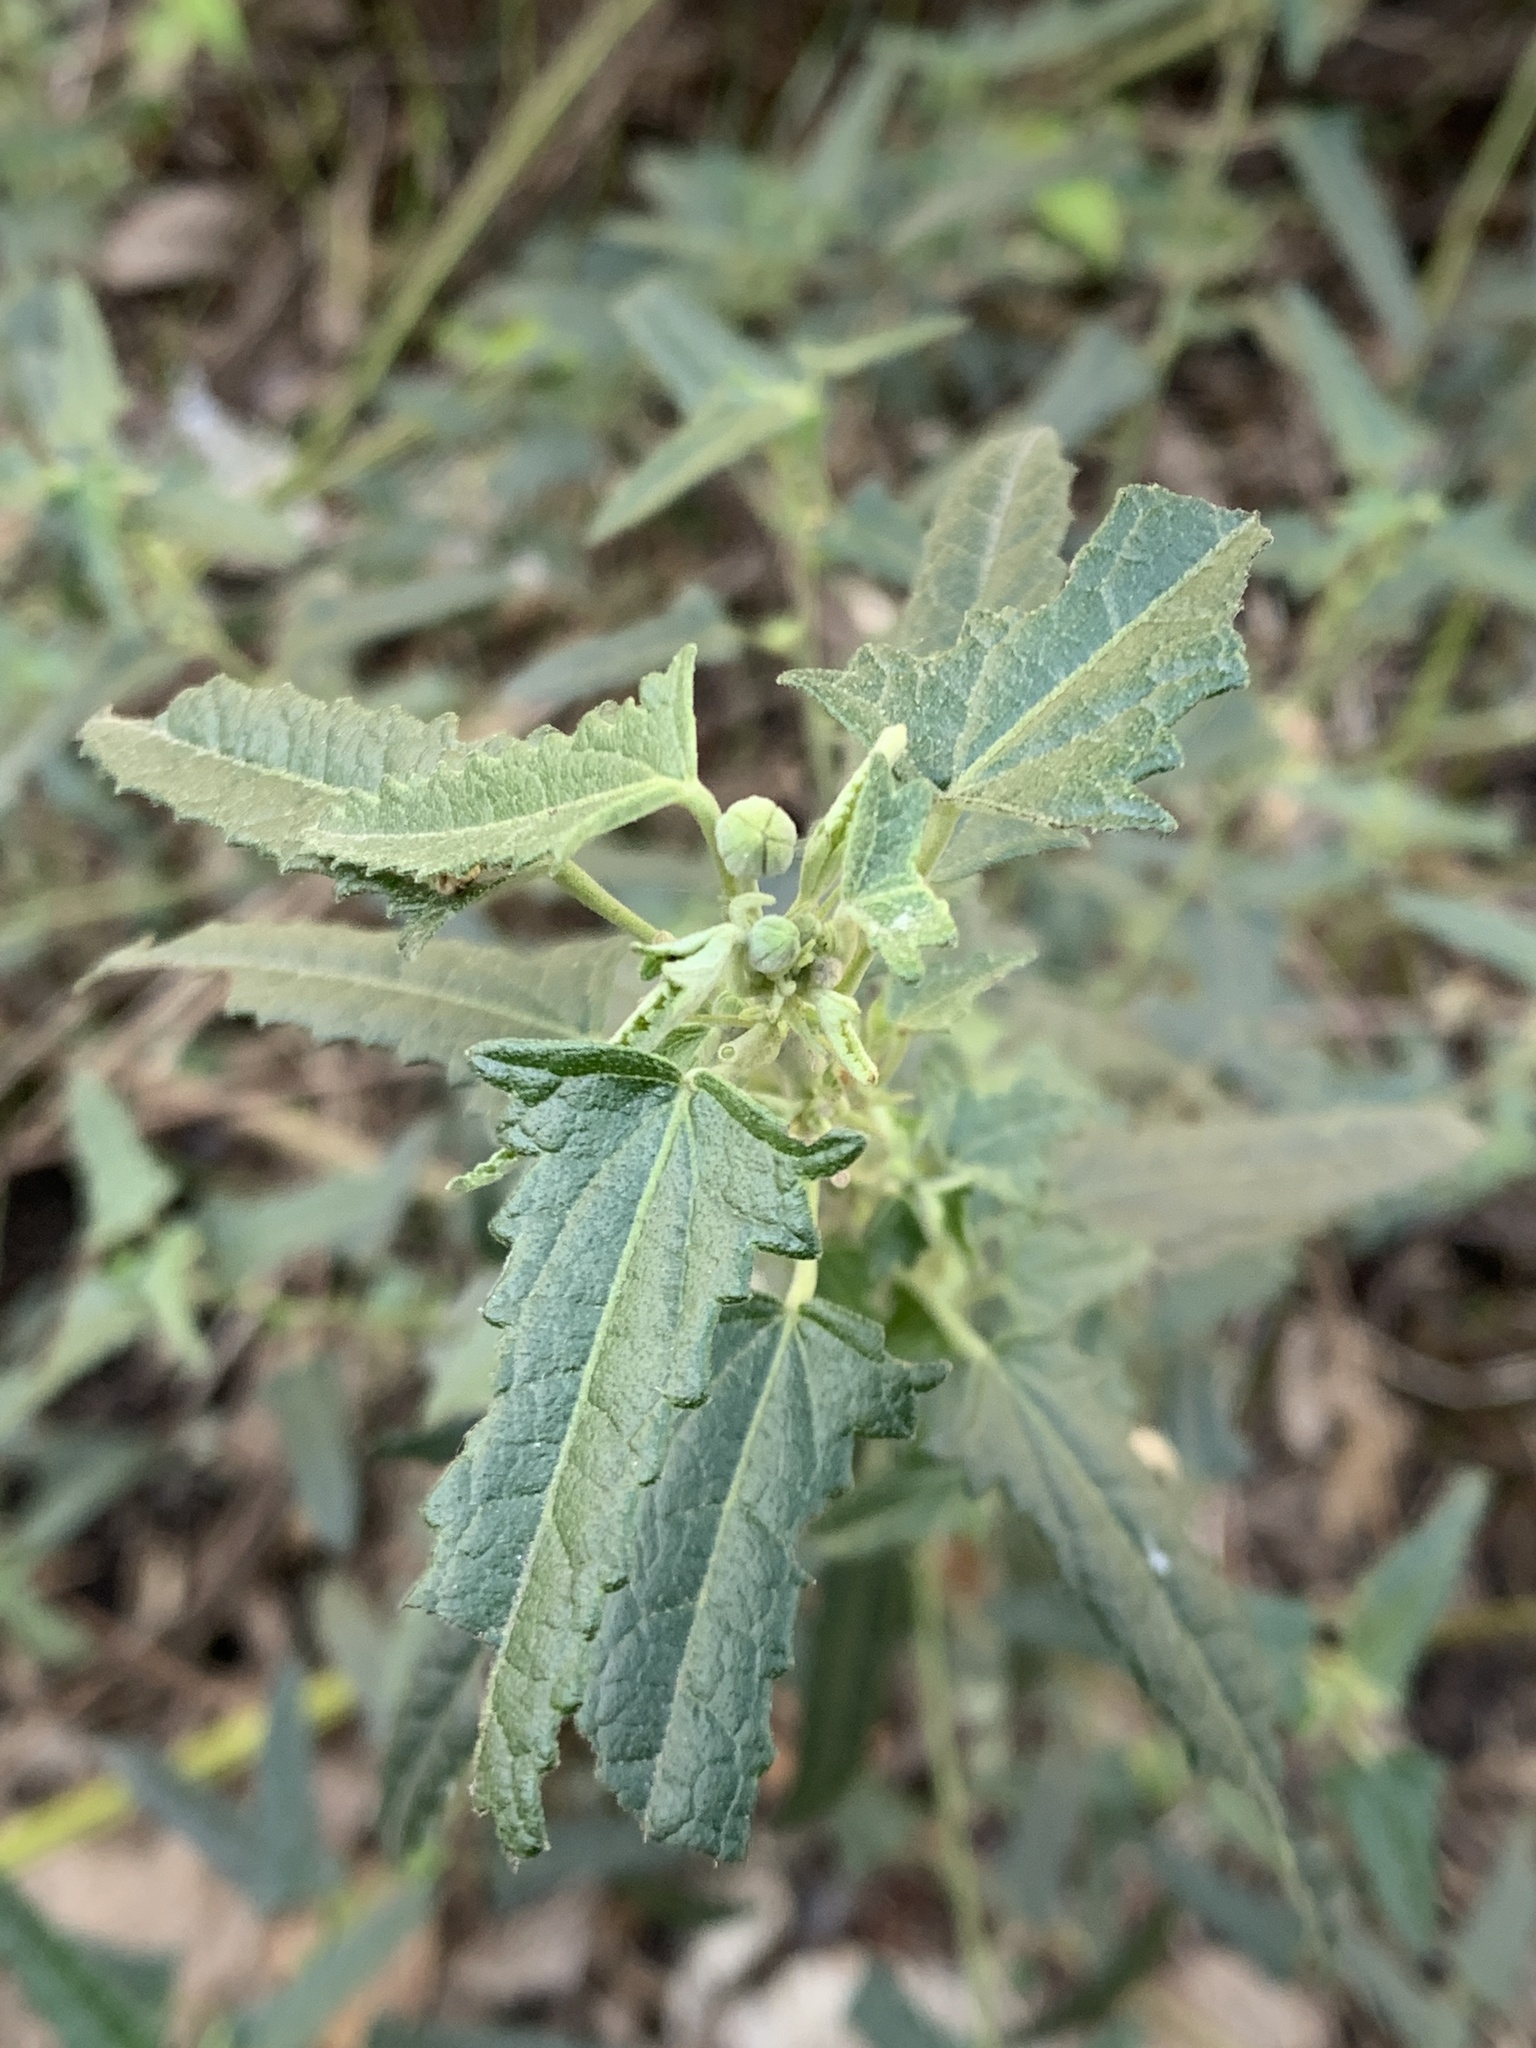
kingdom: Plantae
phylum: Tracheophyta
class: Magnoliopsida
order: Malvales
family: Malvaceae
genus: Pavonia
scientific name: Pavonia hastata
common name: Spearleaf swampmallow
